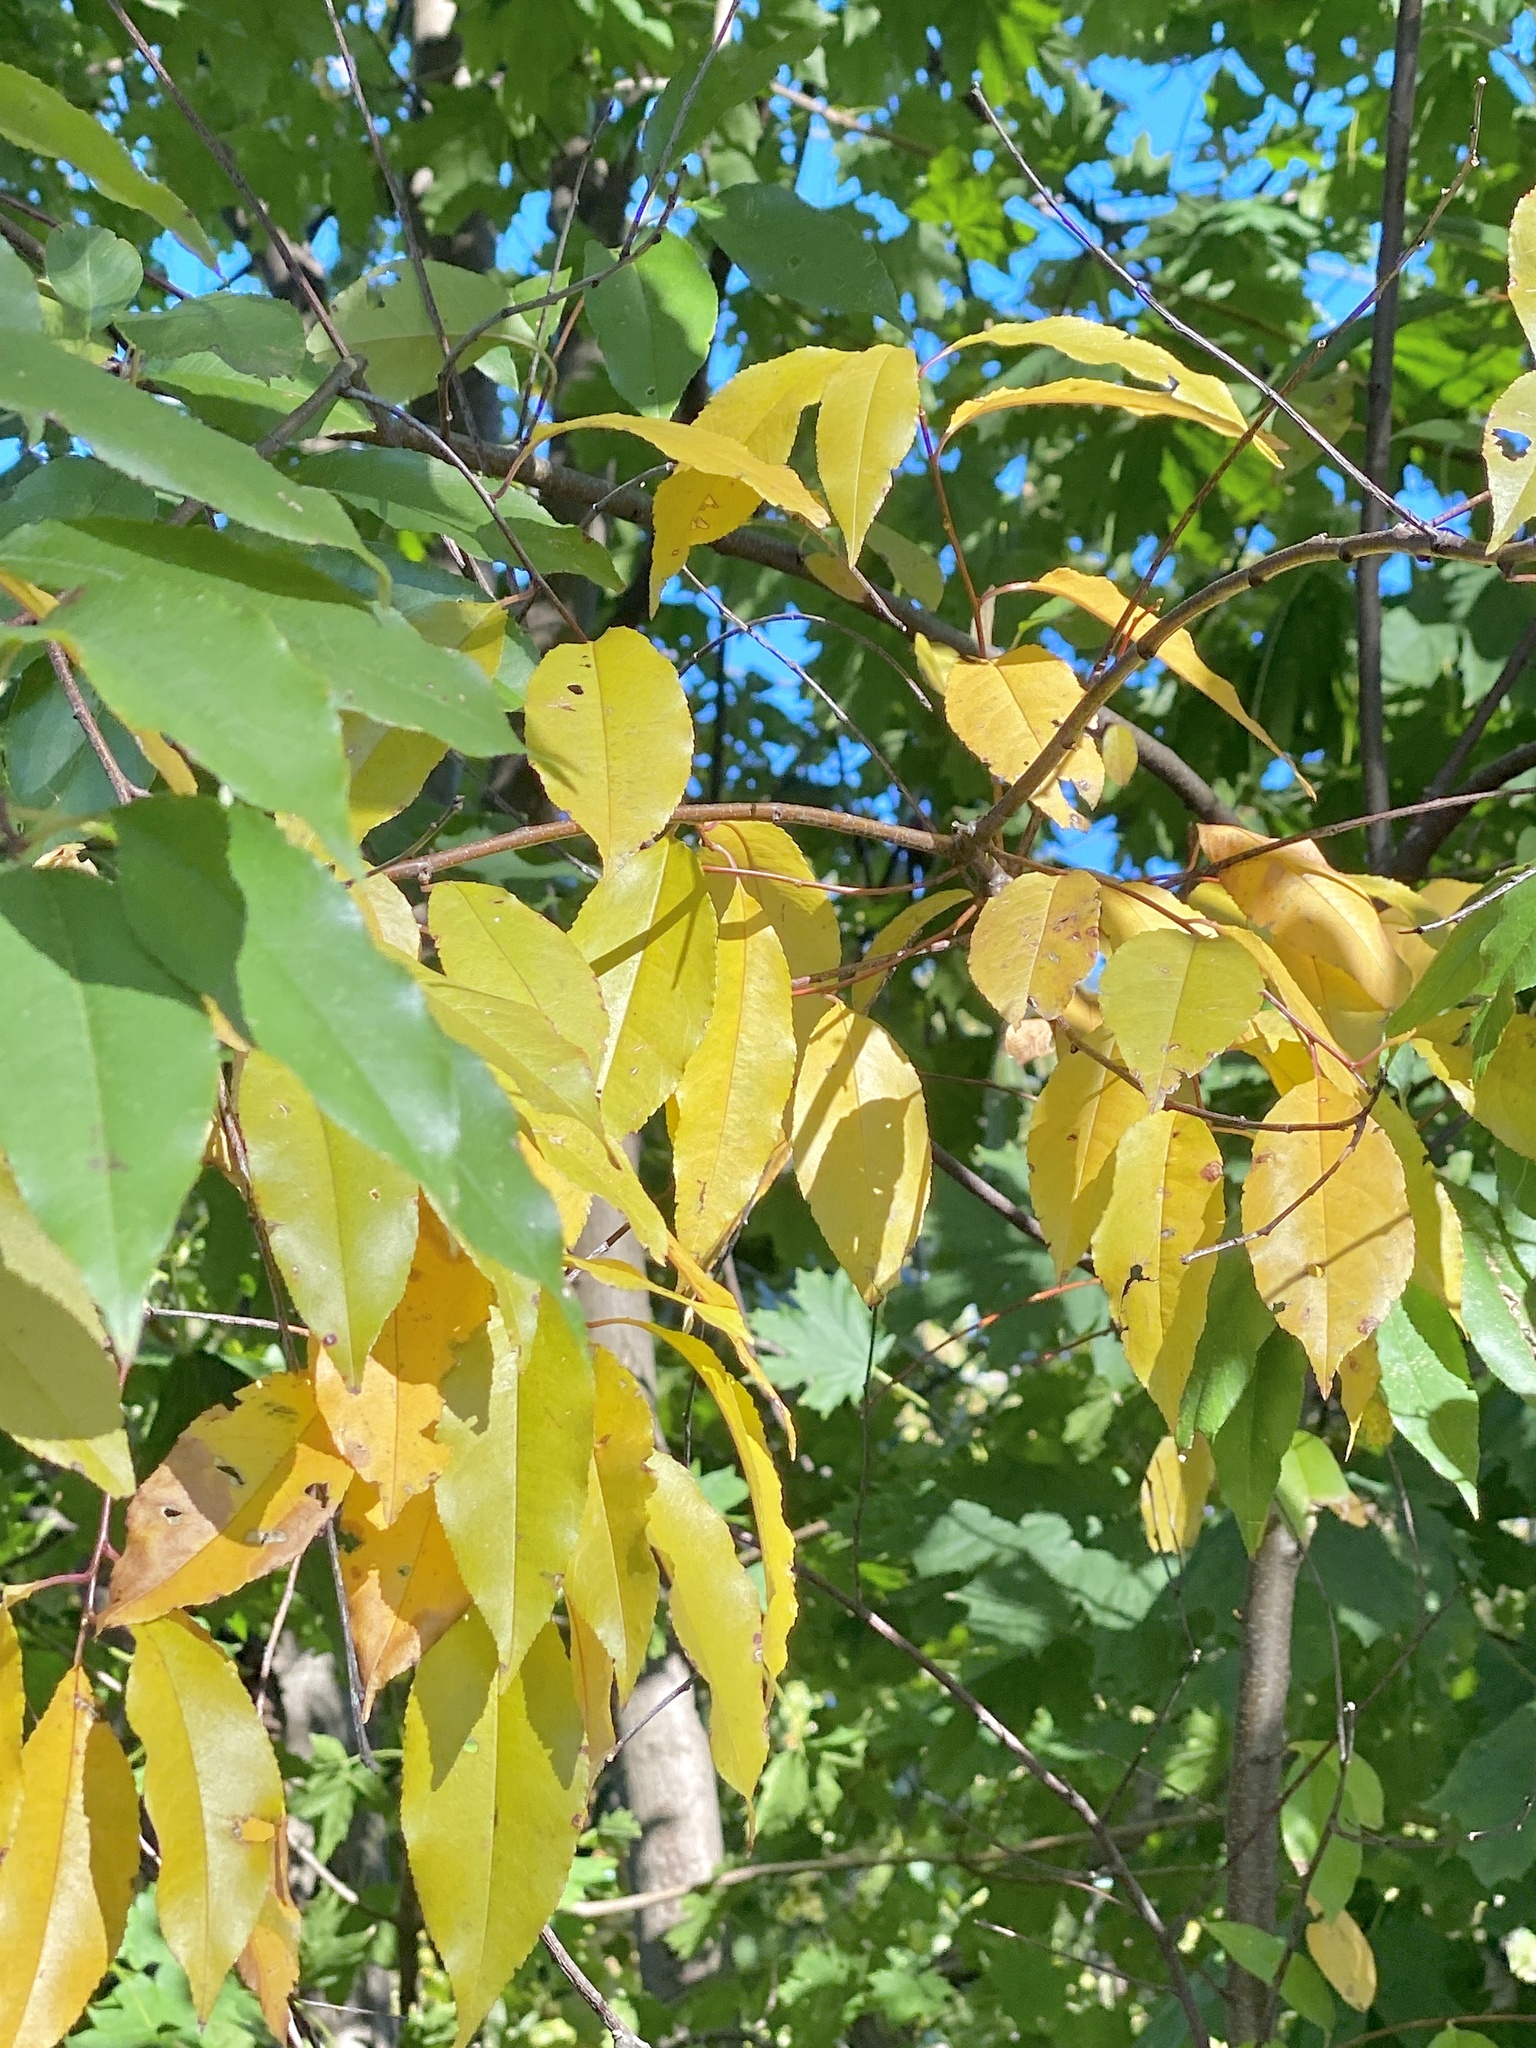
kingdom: Plantae
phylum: Tracheophyta
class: Magnoliopsida
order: Rosales
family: Rosaceae
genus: Prunus
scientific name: Prunus serotina
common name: Black cherry
